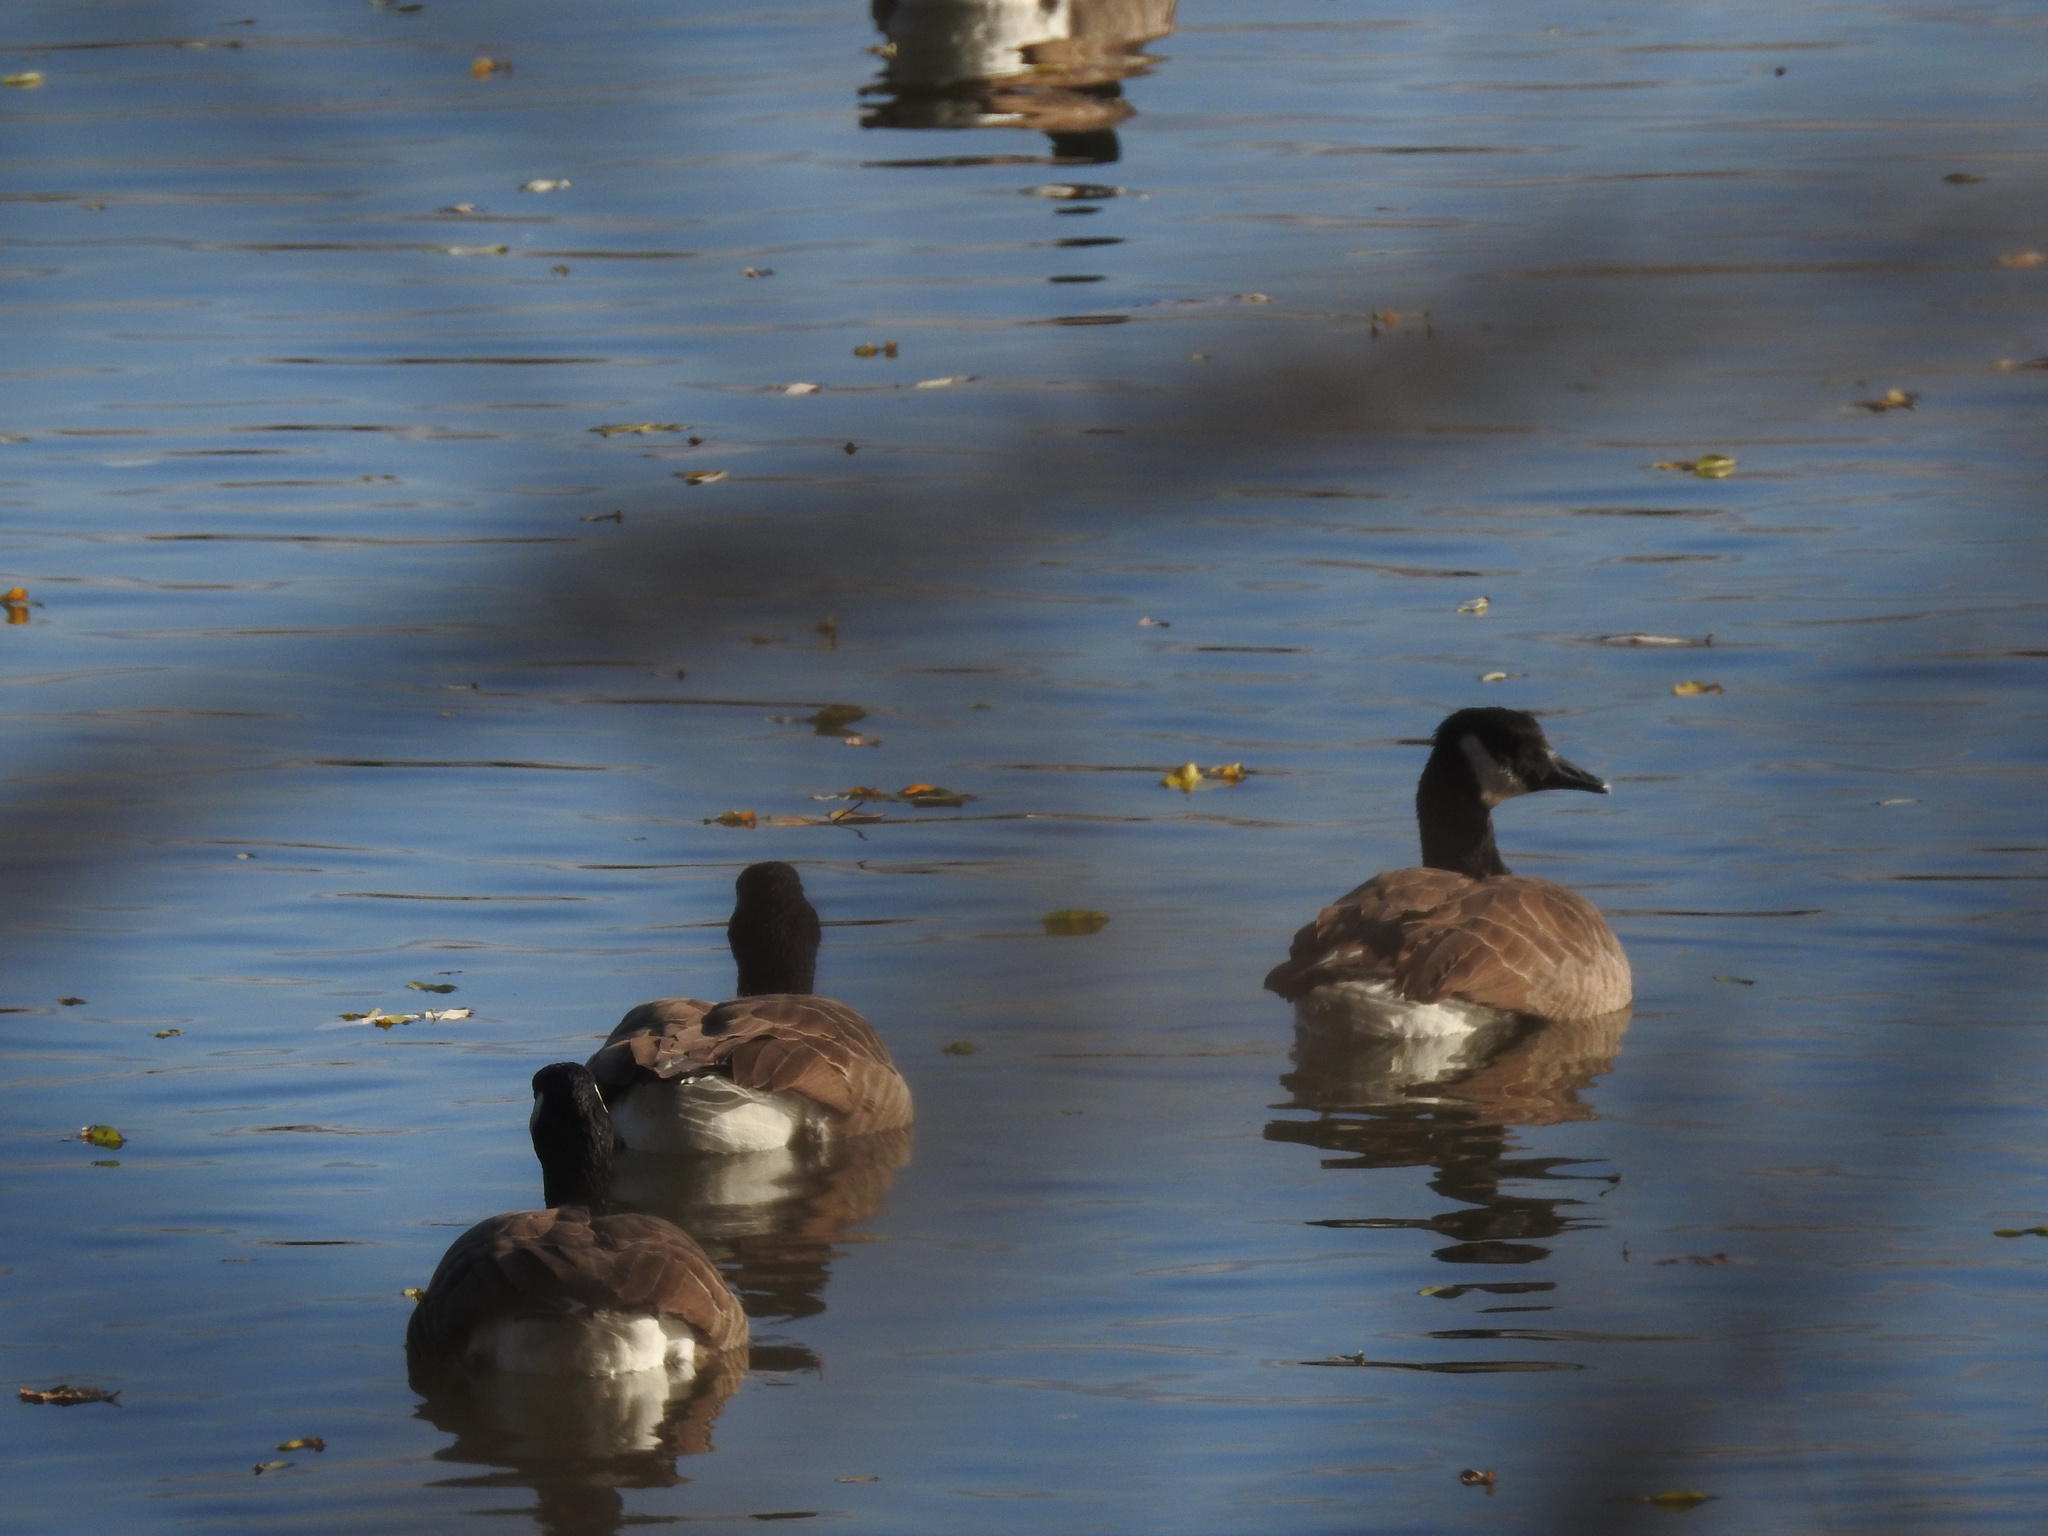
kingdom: Animalia
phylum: Chordata
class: Aves
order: Anseriformes
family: Anatidae
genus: Branta
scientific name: Branta canadensis
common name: Canada goose
